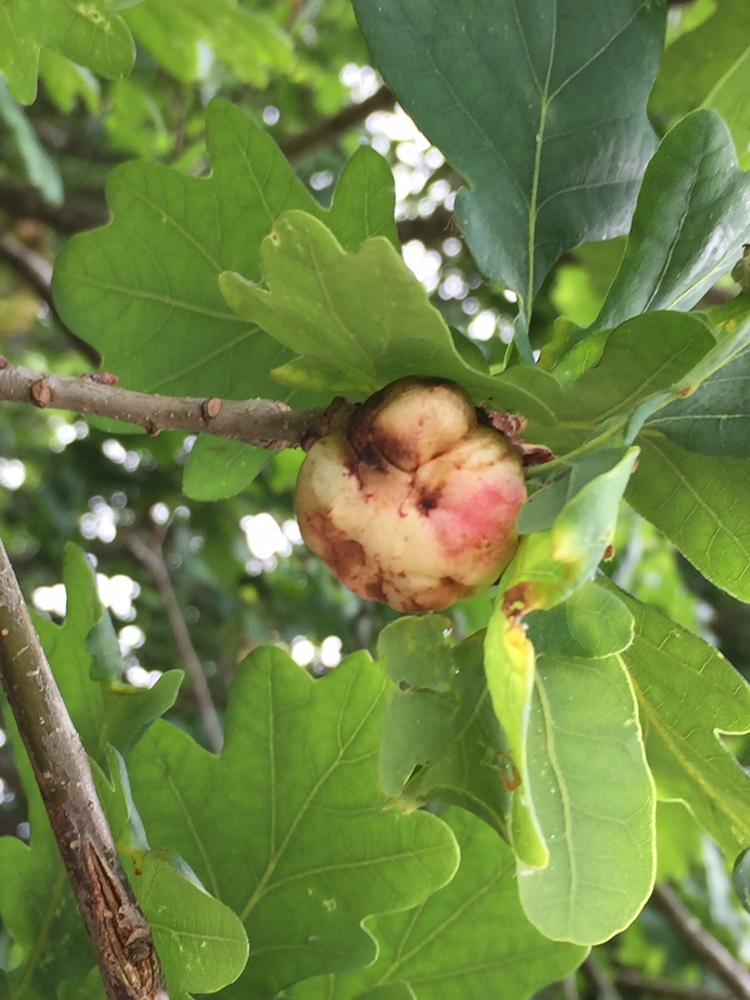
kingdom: Animalia
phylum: Arthropoda
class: Insecta
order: Hymenoptera
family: Cynipidae
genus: Biorhiza
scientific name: Biorhiza pallida
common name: Oak apple
